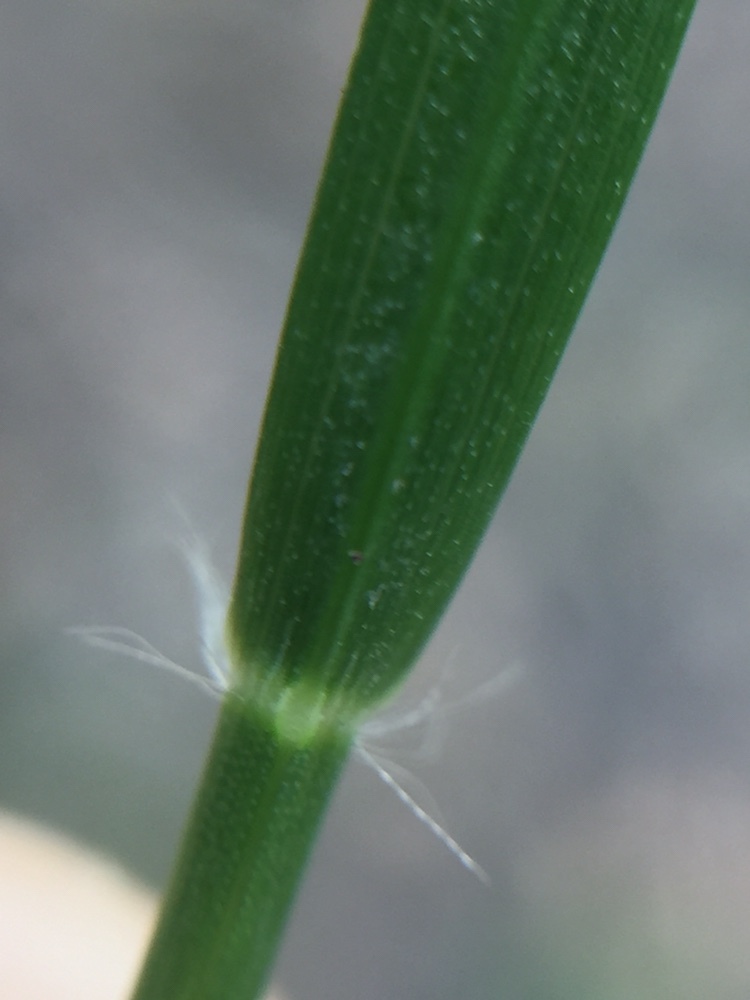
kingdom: Plantae
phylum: Tracheophyta
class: Liliopsida
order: Poales
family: Poaceae
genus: Danthonia
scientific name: Danthonia decumbens
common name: Common heathgrass
